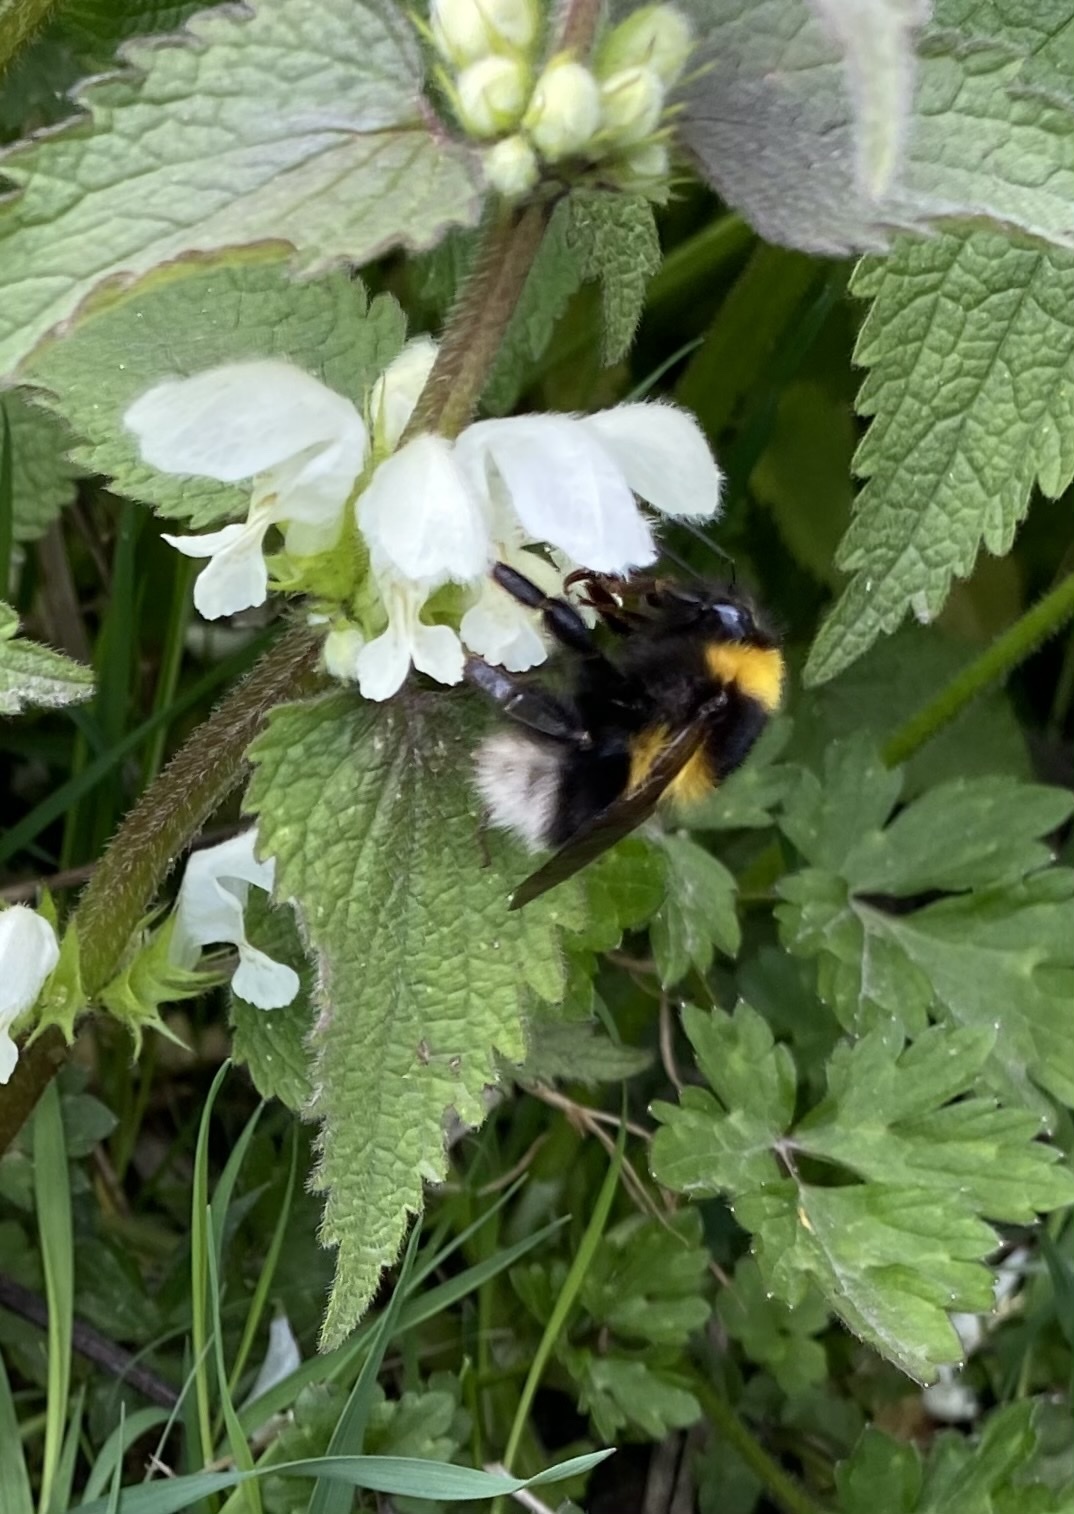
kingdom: Animalia
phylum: Arthropoda
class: Insecta
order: Hymenoptera
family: Apidae
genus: Bombus
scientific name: Bombus hortorum
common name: Garden bumblebee
